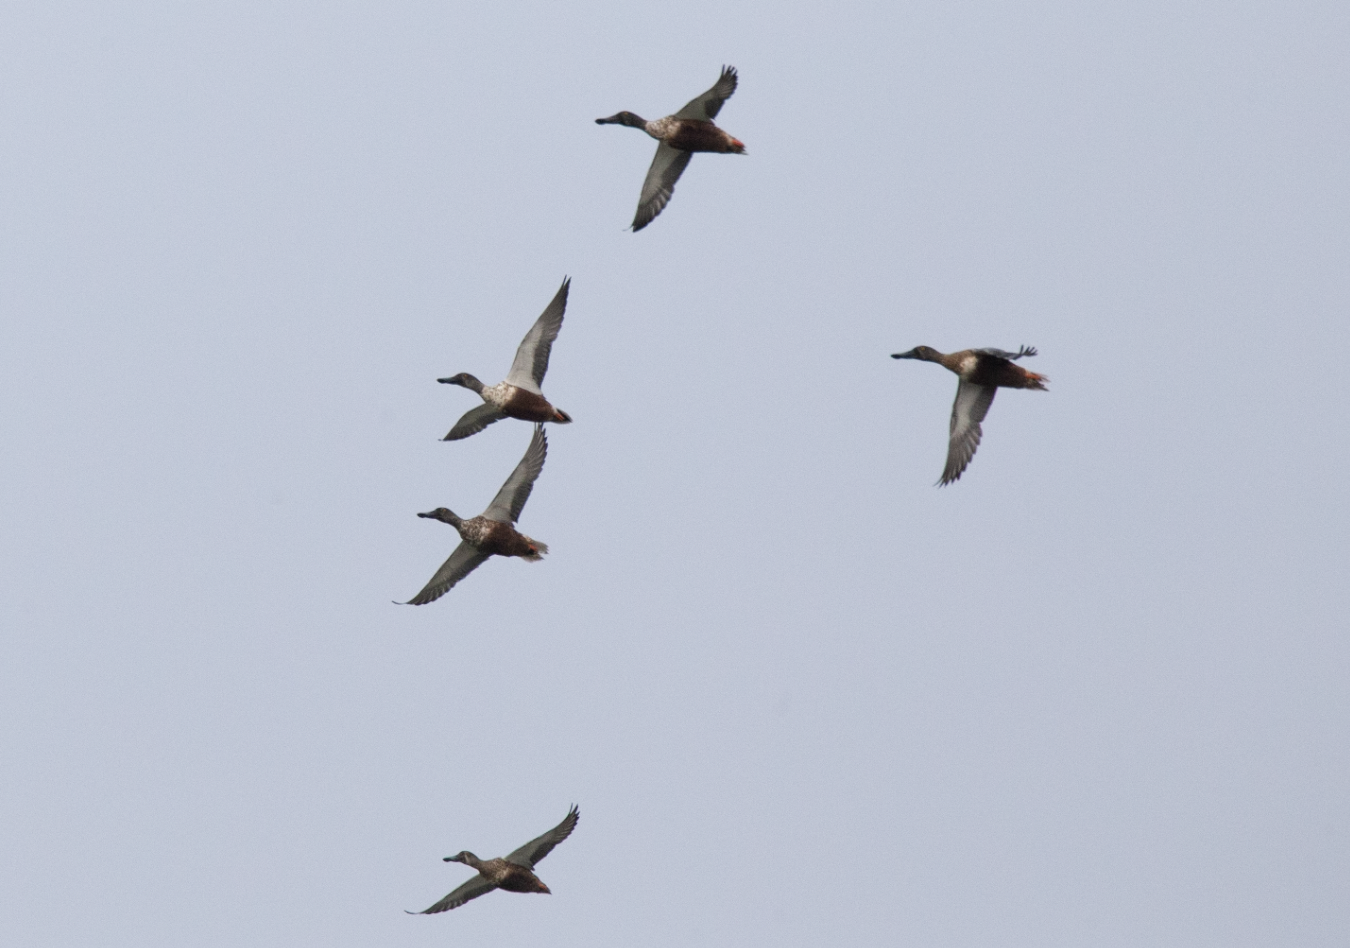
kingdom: Animalia
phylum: Chordata
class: Aves
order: Anseriformes
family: Anatidae
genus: Spatula
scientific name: Spatula clypeata
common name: Northern shoveler
